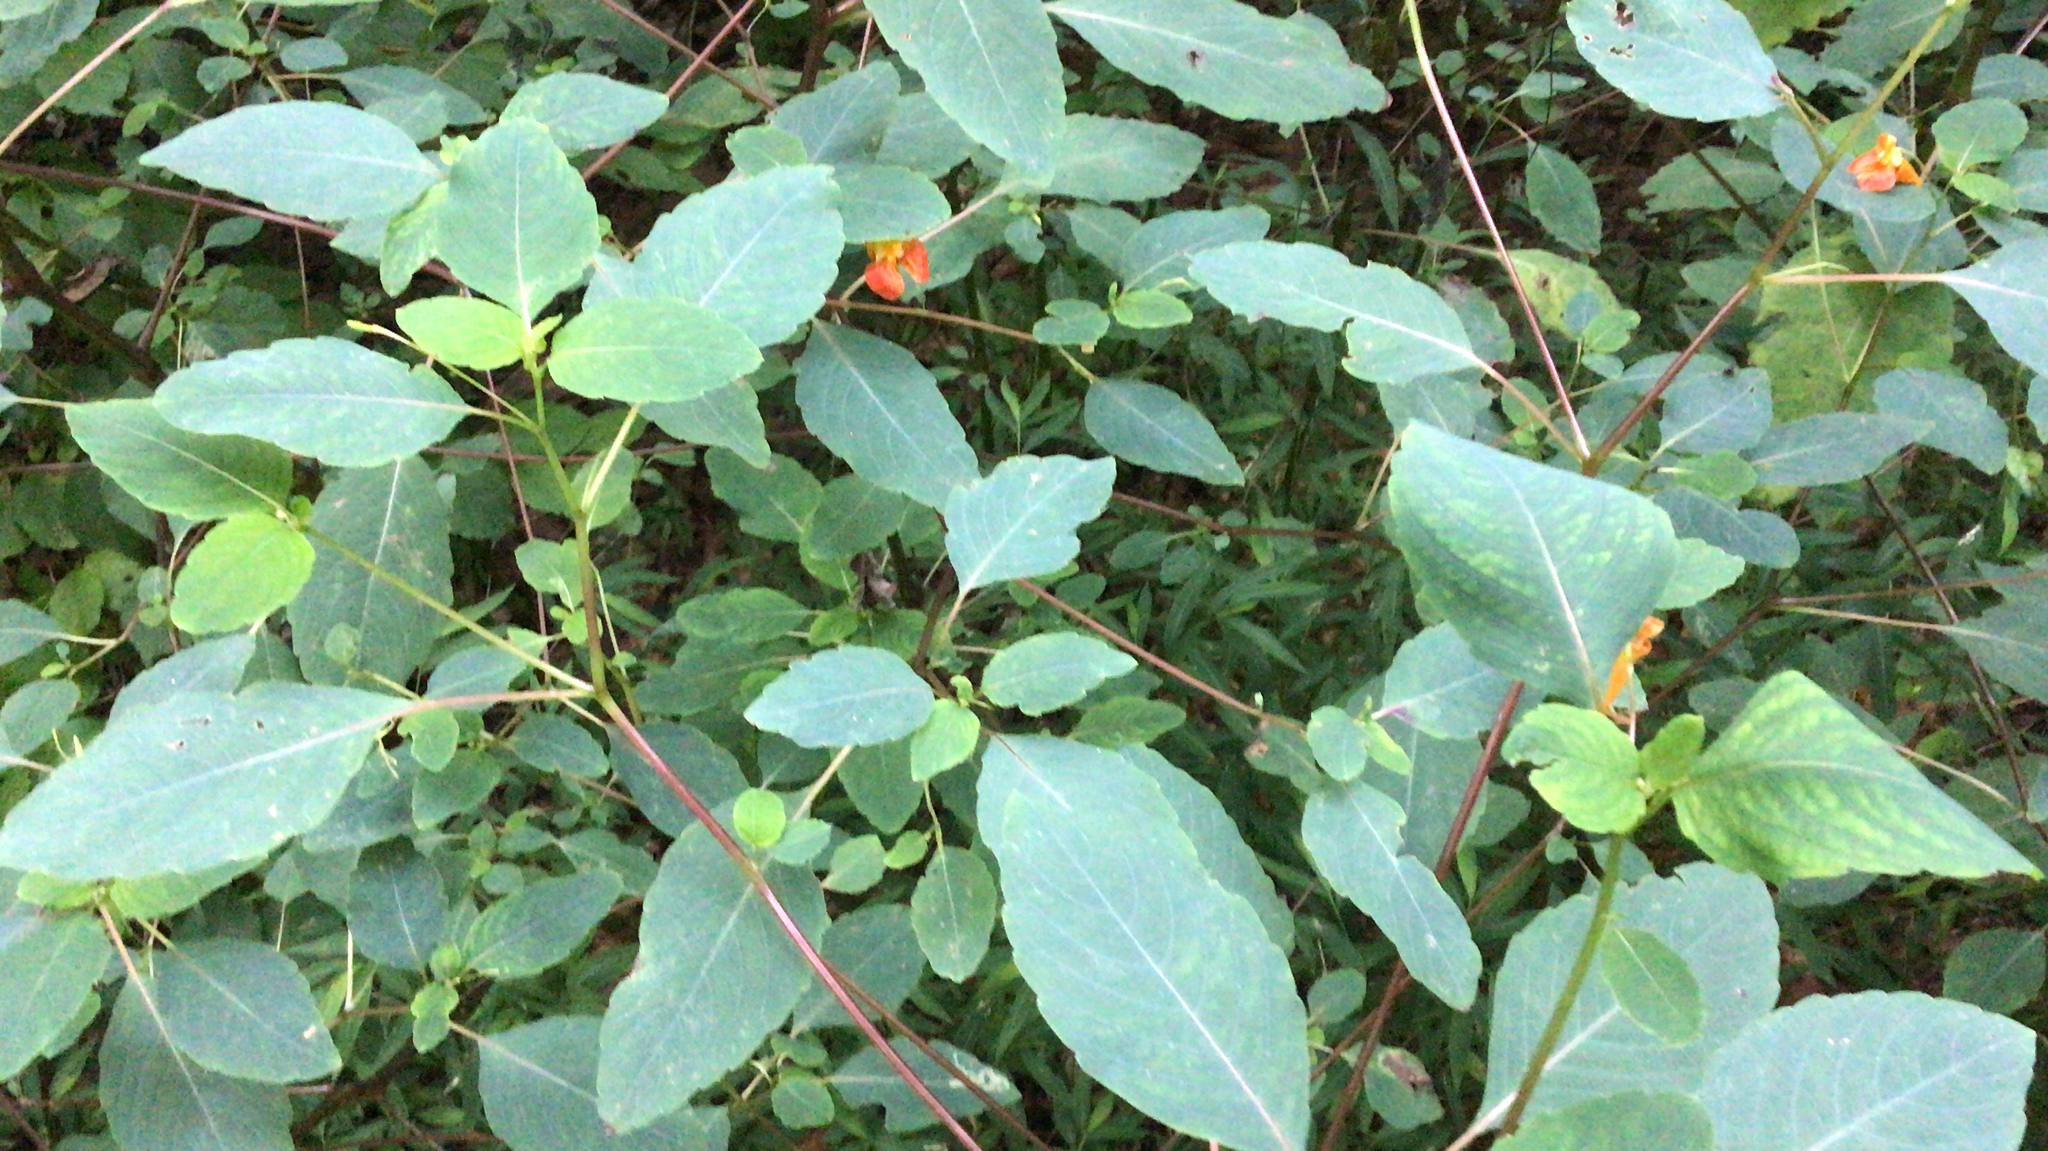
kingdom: Plantae
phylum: Tracheophyta
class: Magnoliopsida
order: Ericales
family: Balsaminaceae
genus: Impatiens
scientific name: Impatiens capensis
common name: Orange balsam
